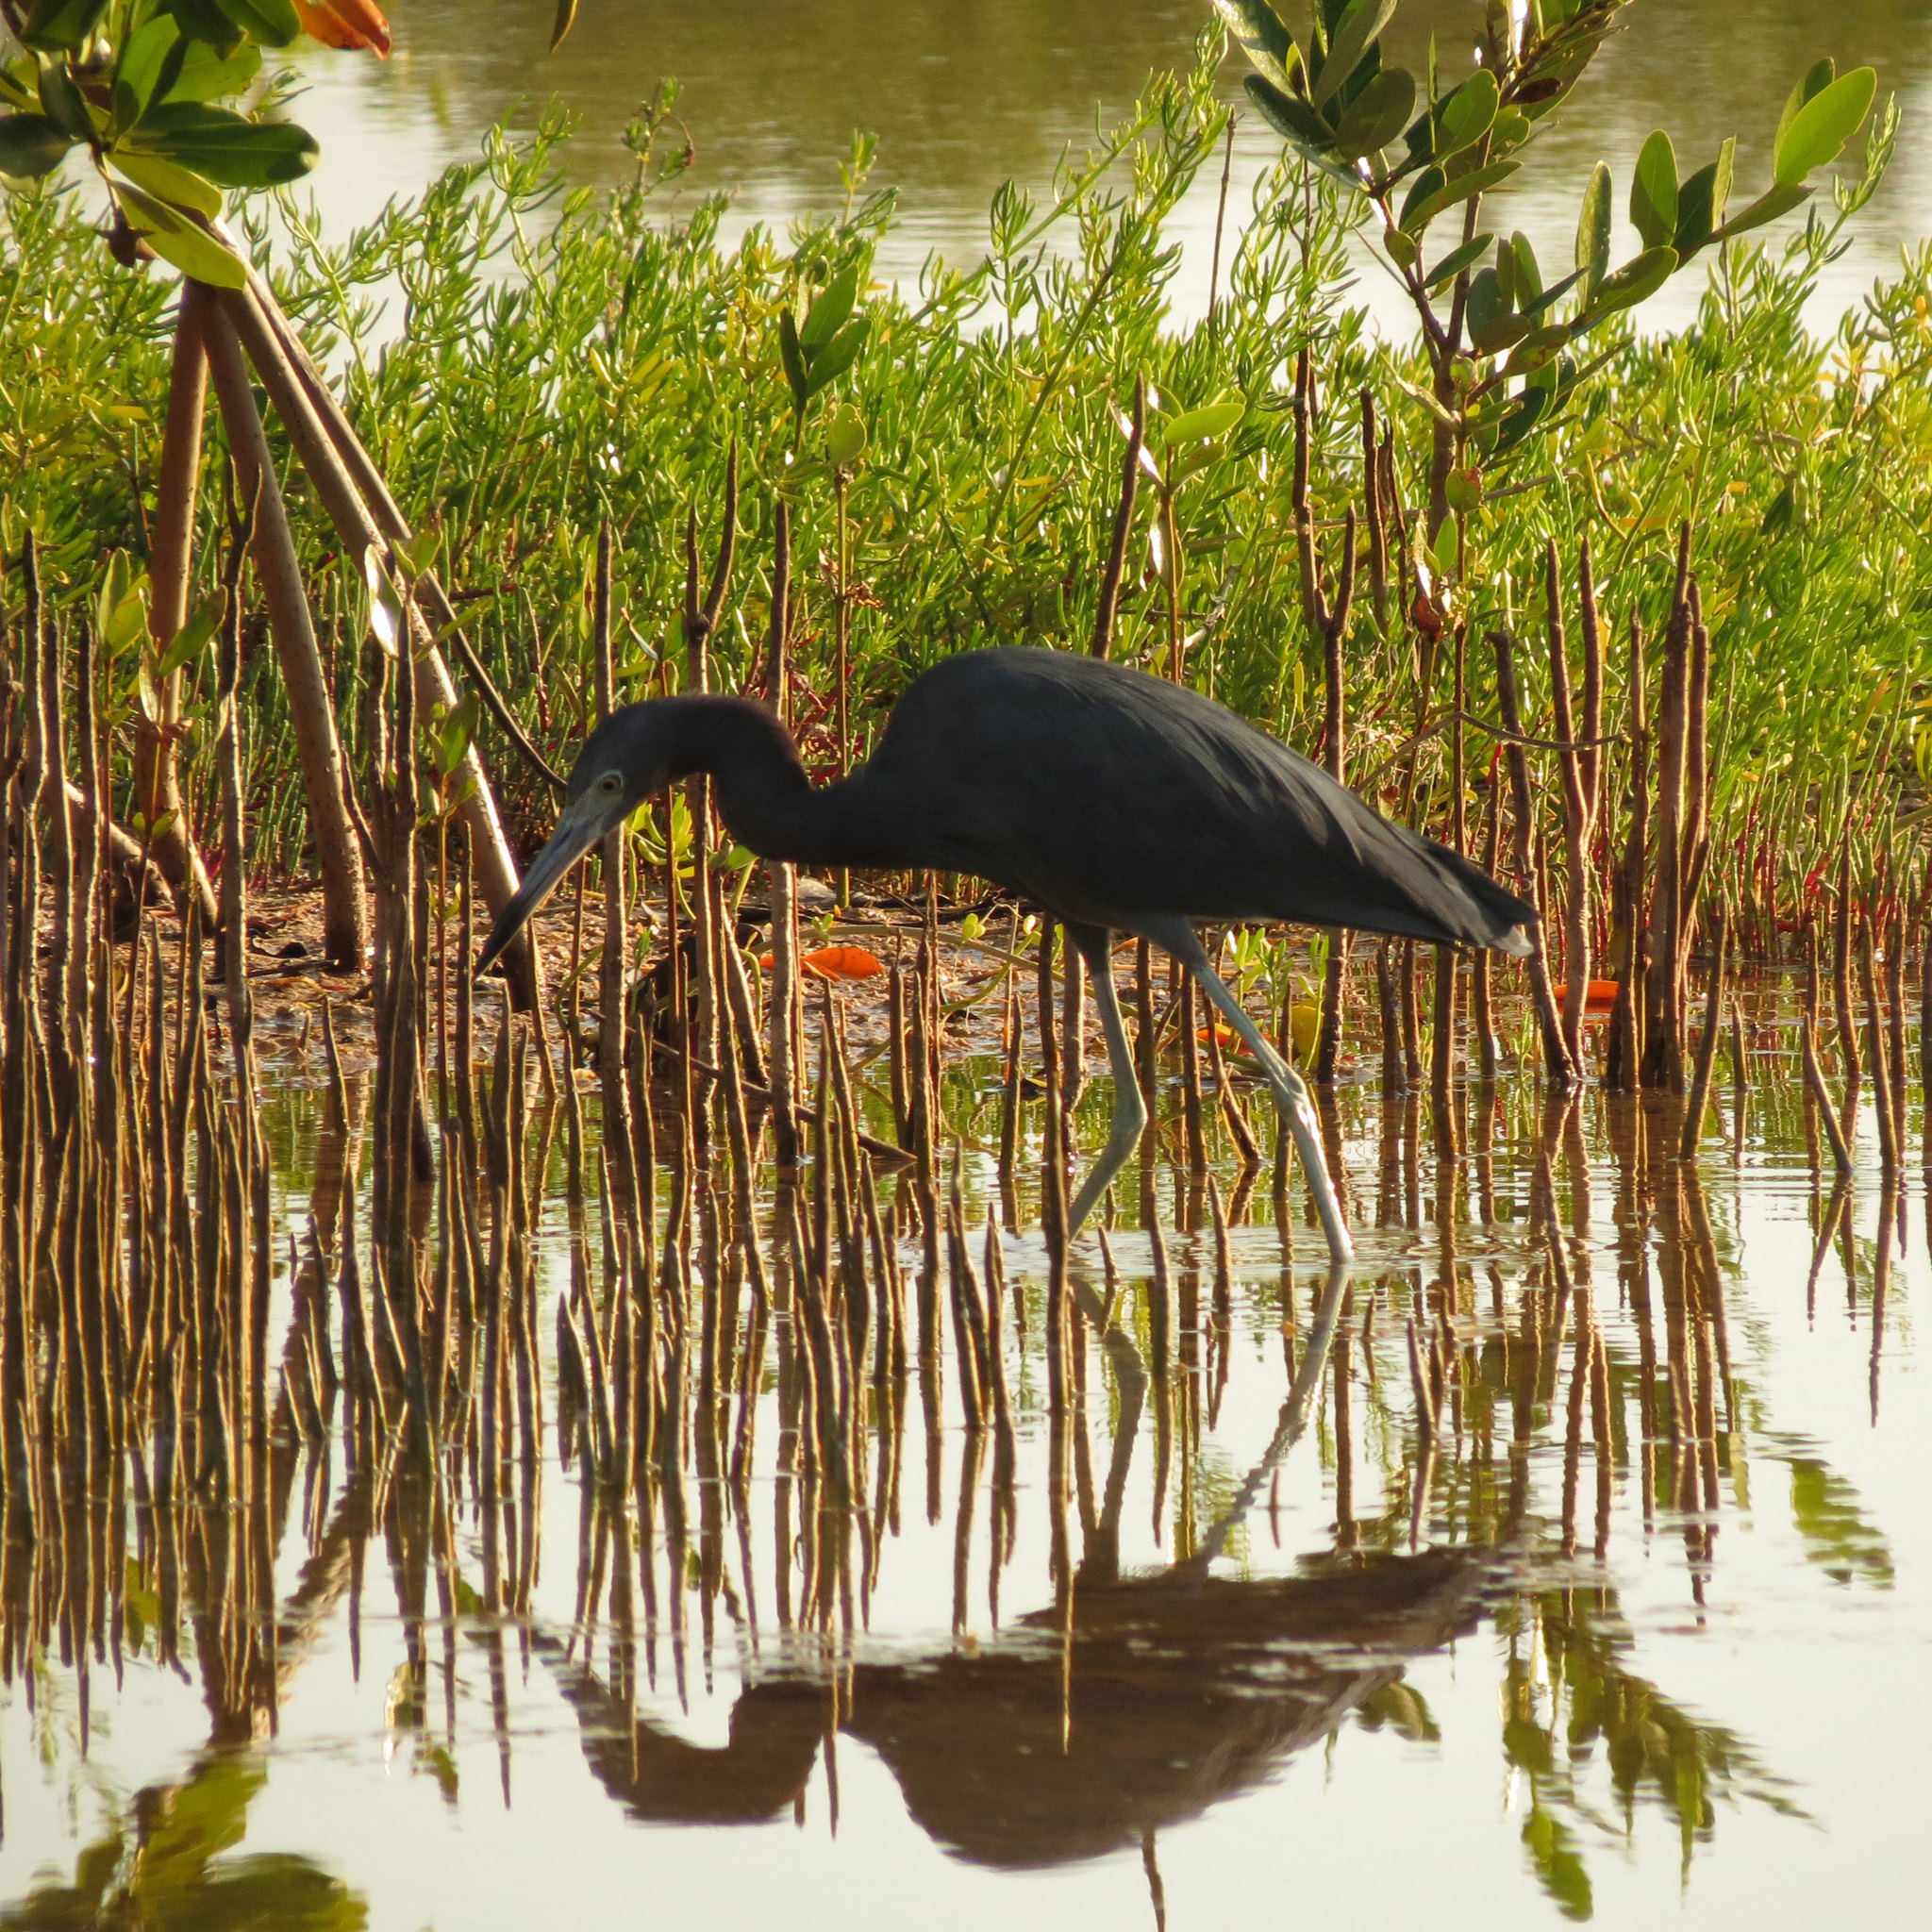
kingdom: Animalia
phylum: Chordata
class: Aves
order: Pelecaniformes
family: Ardeidae
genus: Egretta
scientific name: Egretta caerulea
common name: Little blue heron
